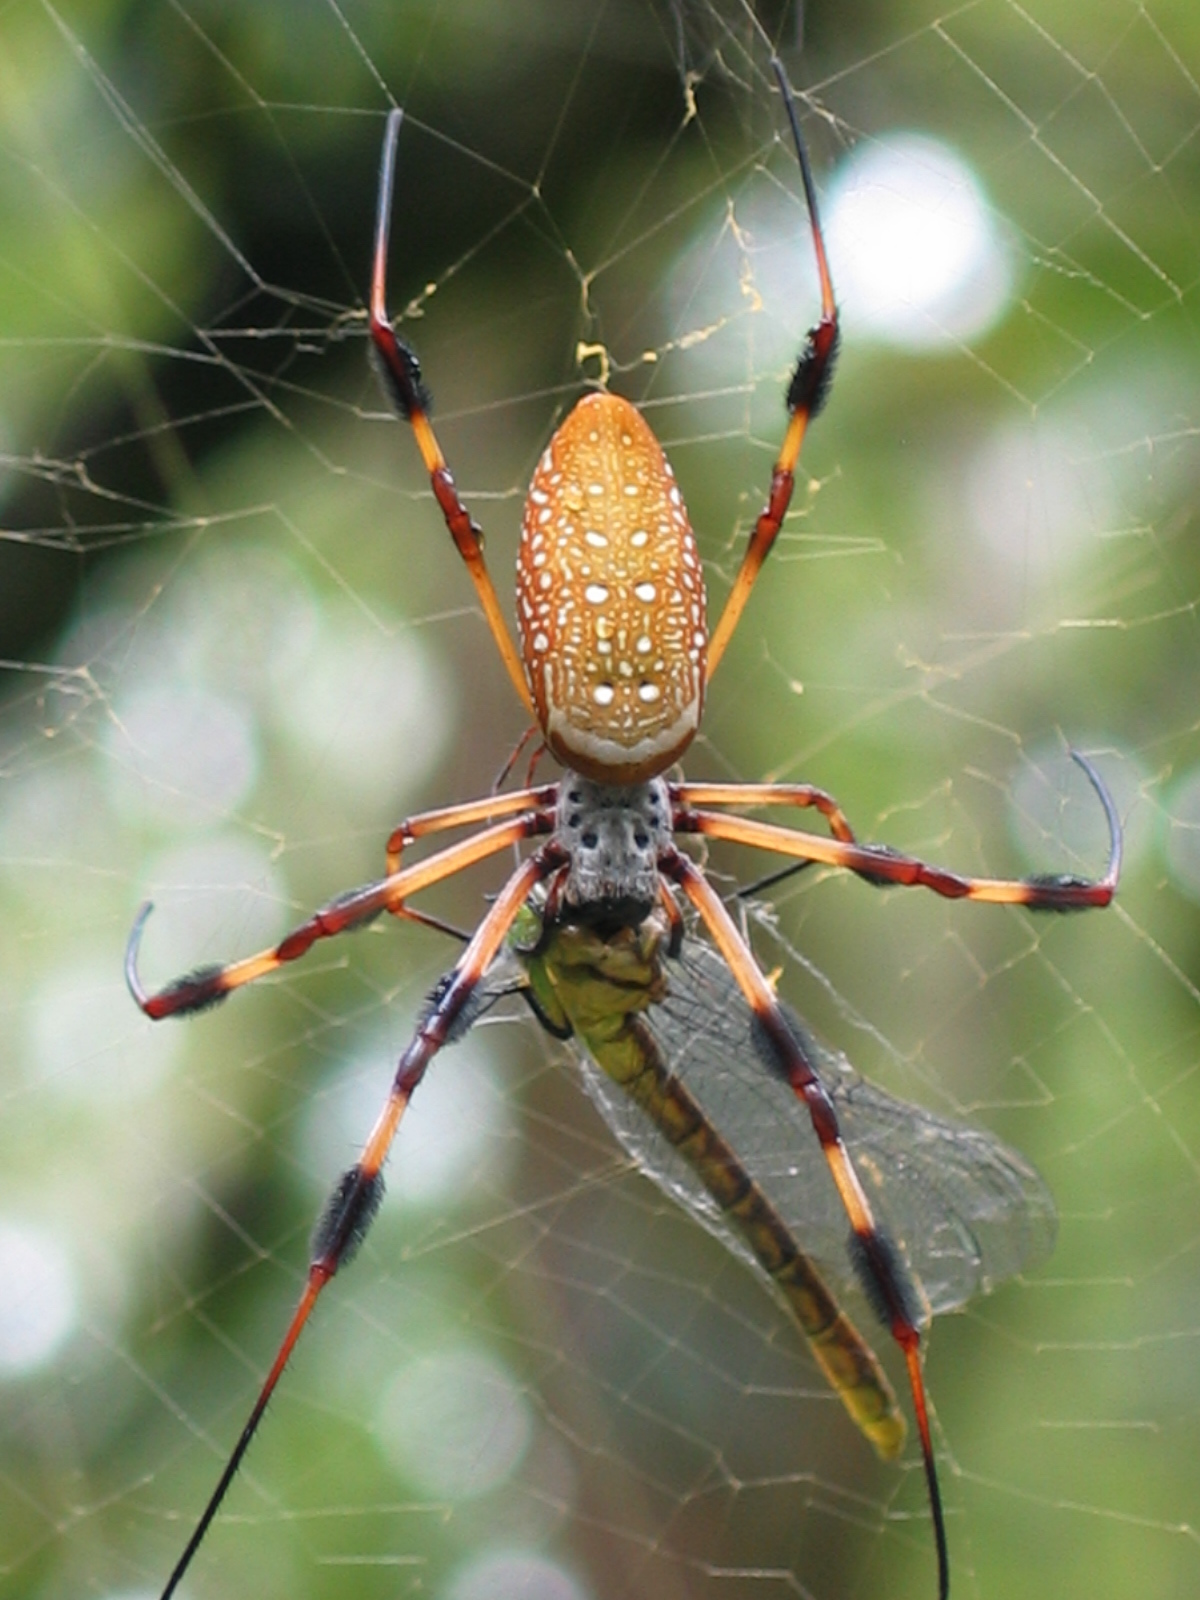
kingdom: Animalia
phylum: Arthropoda
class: Arachnida
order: Araneae
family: Araneidae
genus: Trichonephila
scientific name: Trichonephila clavipes
